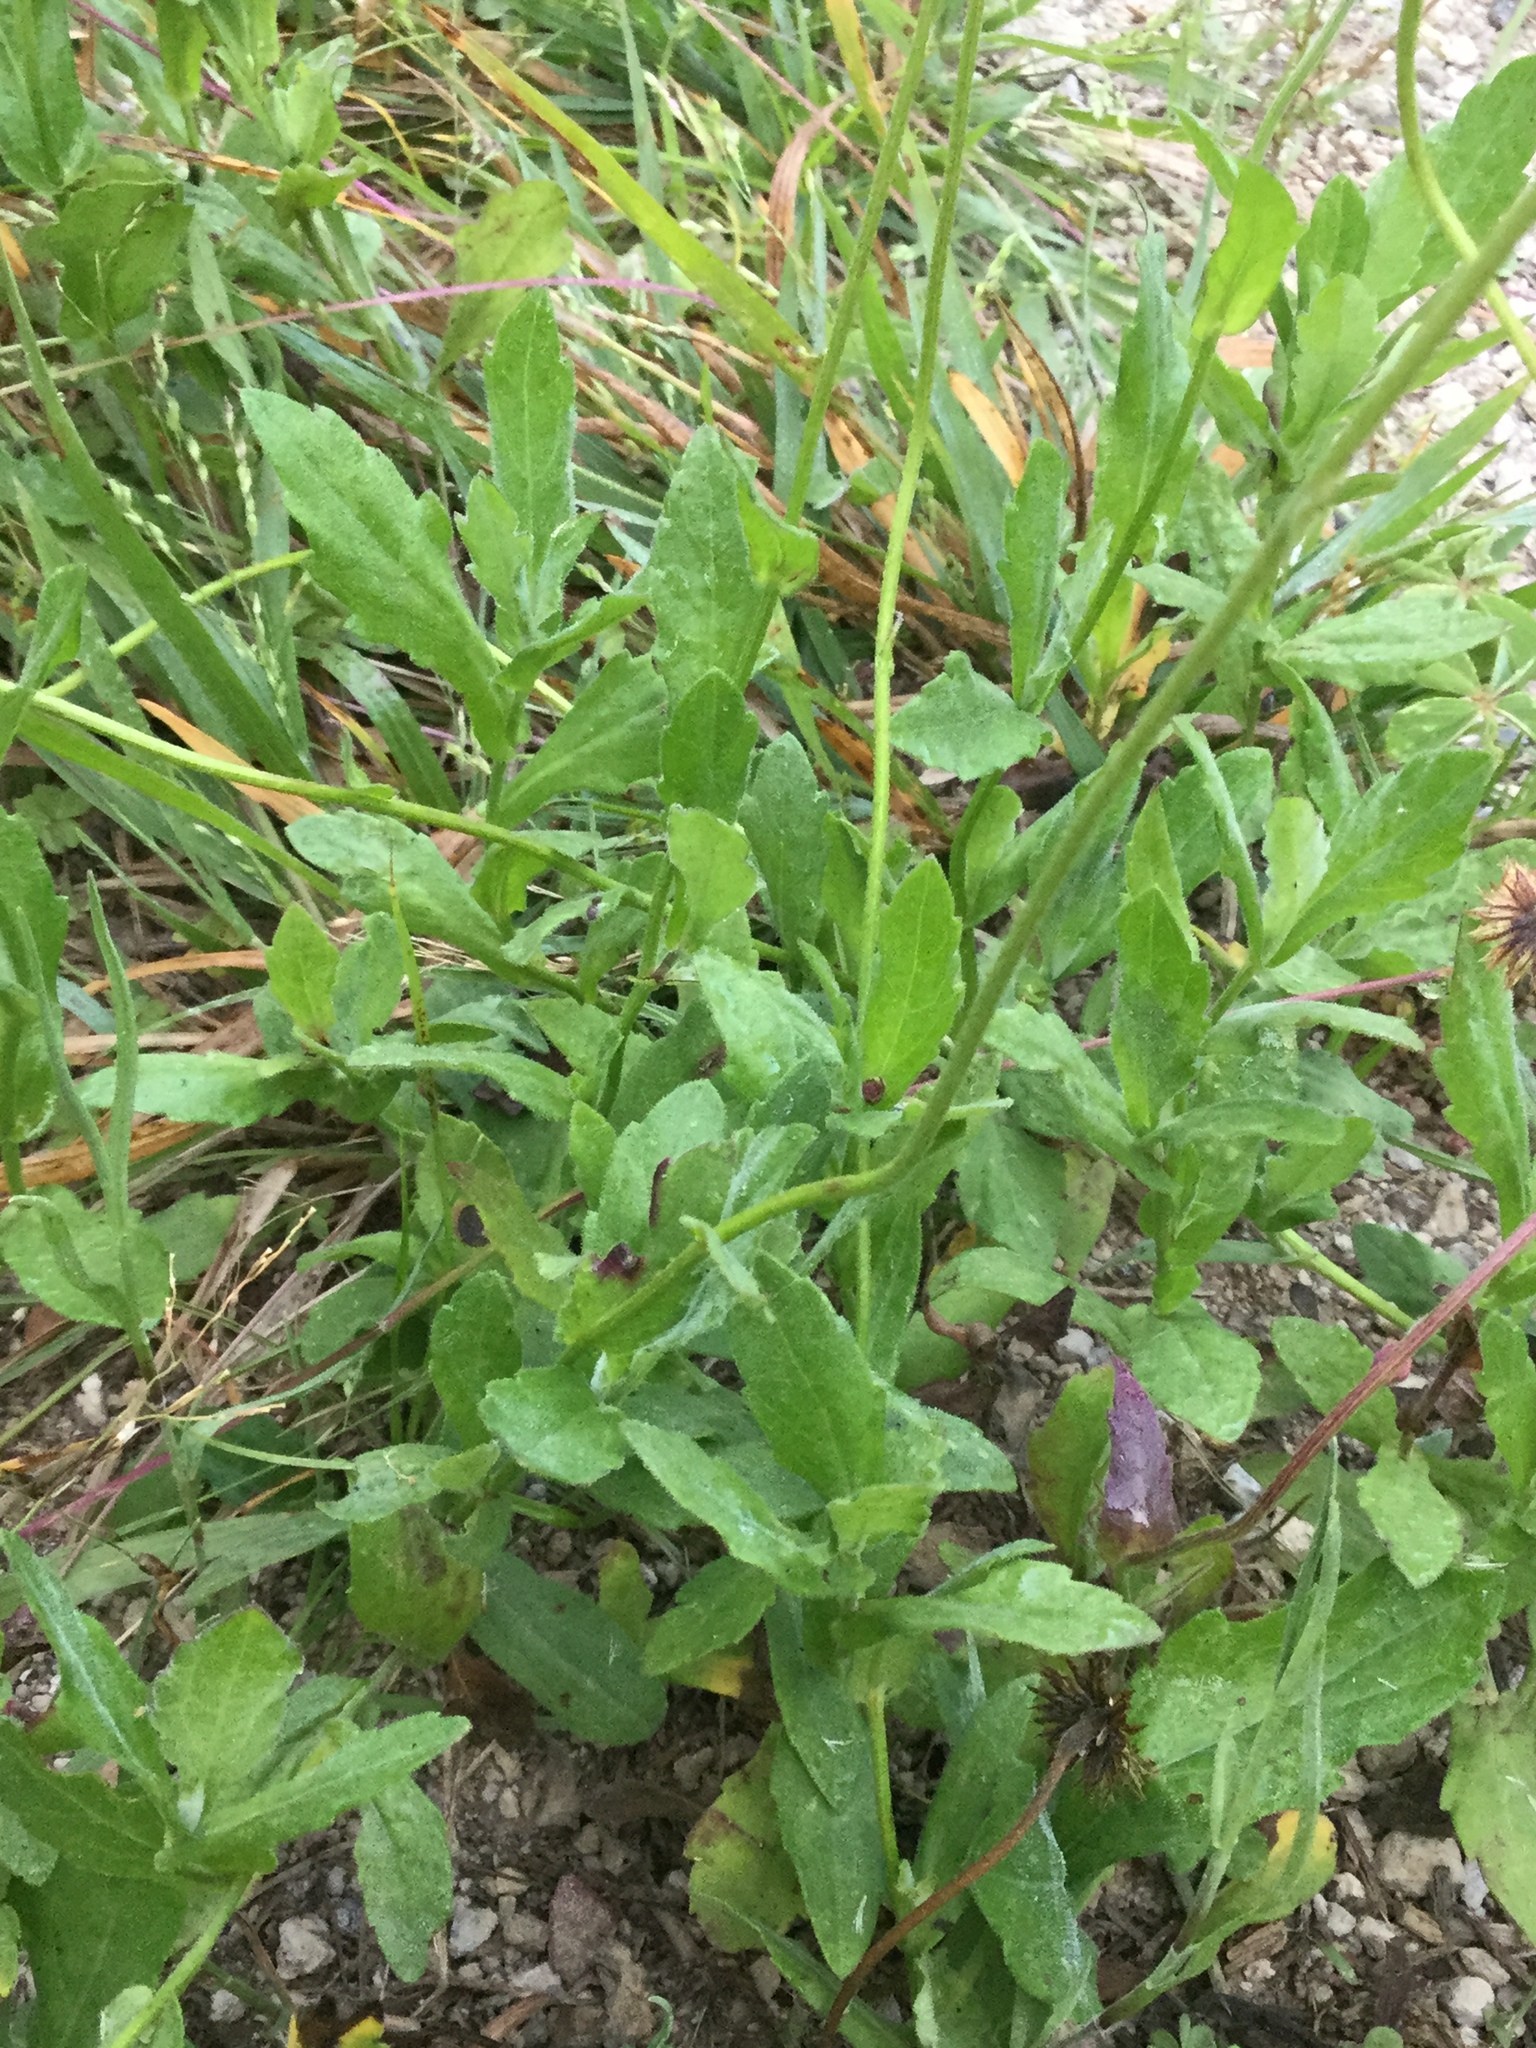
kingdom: Plantae
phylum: Tracheophyta
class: Magnoliopsida
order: Asterales
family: Asteraceae
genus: Erigeron
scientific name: Erigeron longipes
